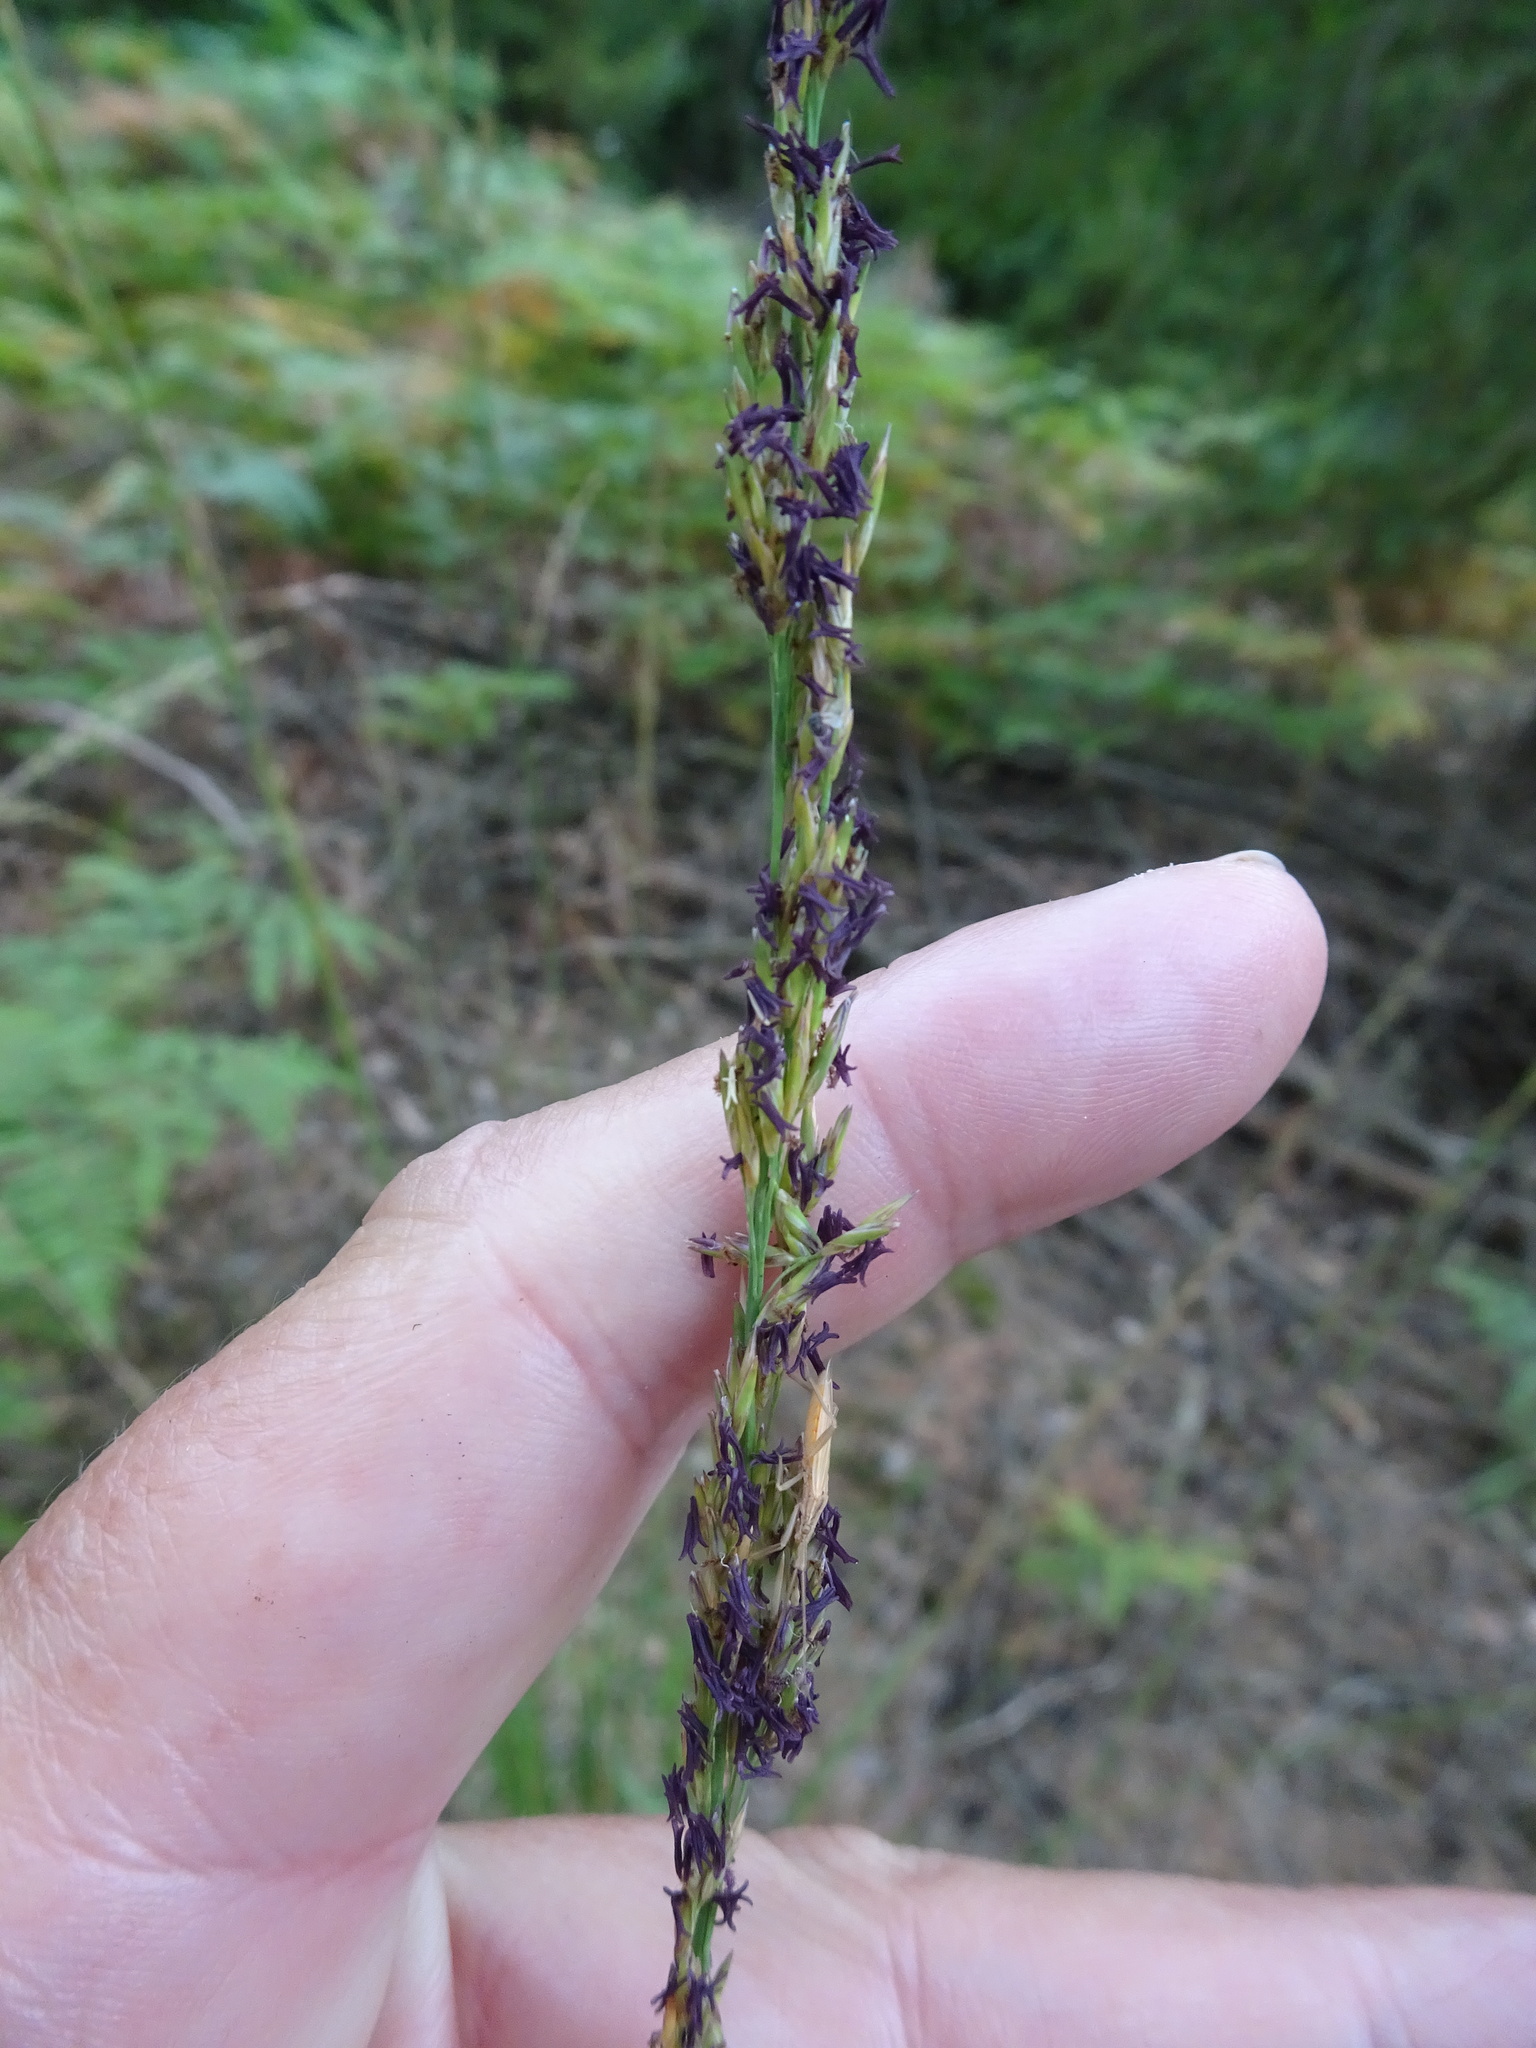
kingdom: Plantae
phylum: Tracheophyta
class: Liliopsida
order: Poales
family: Poaceae
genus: Molinia
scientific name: Molinia caerulea
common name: Purple moor-grass
